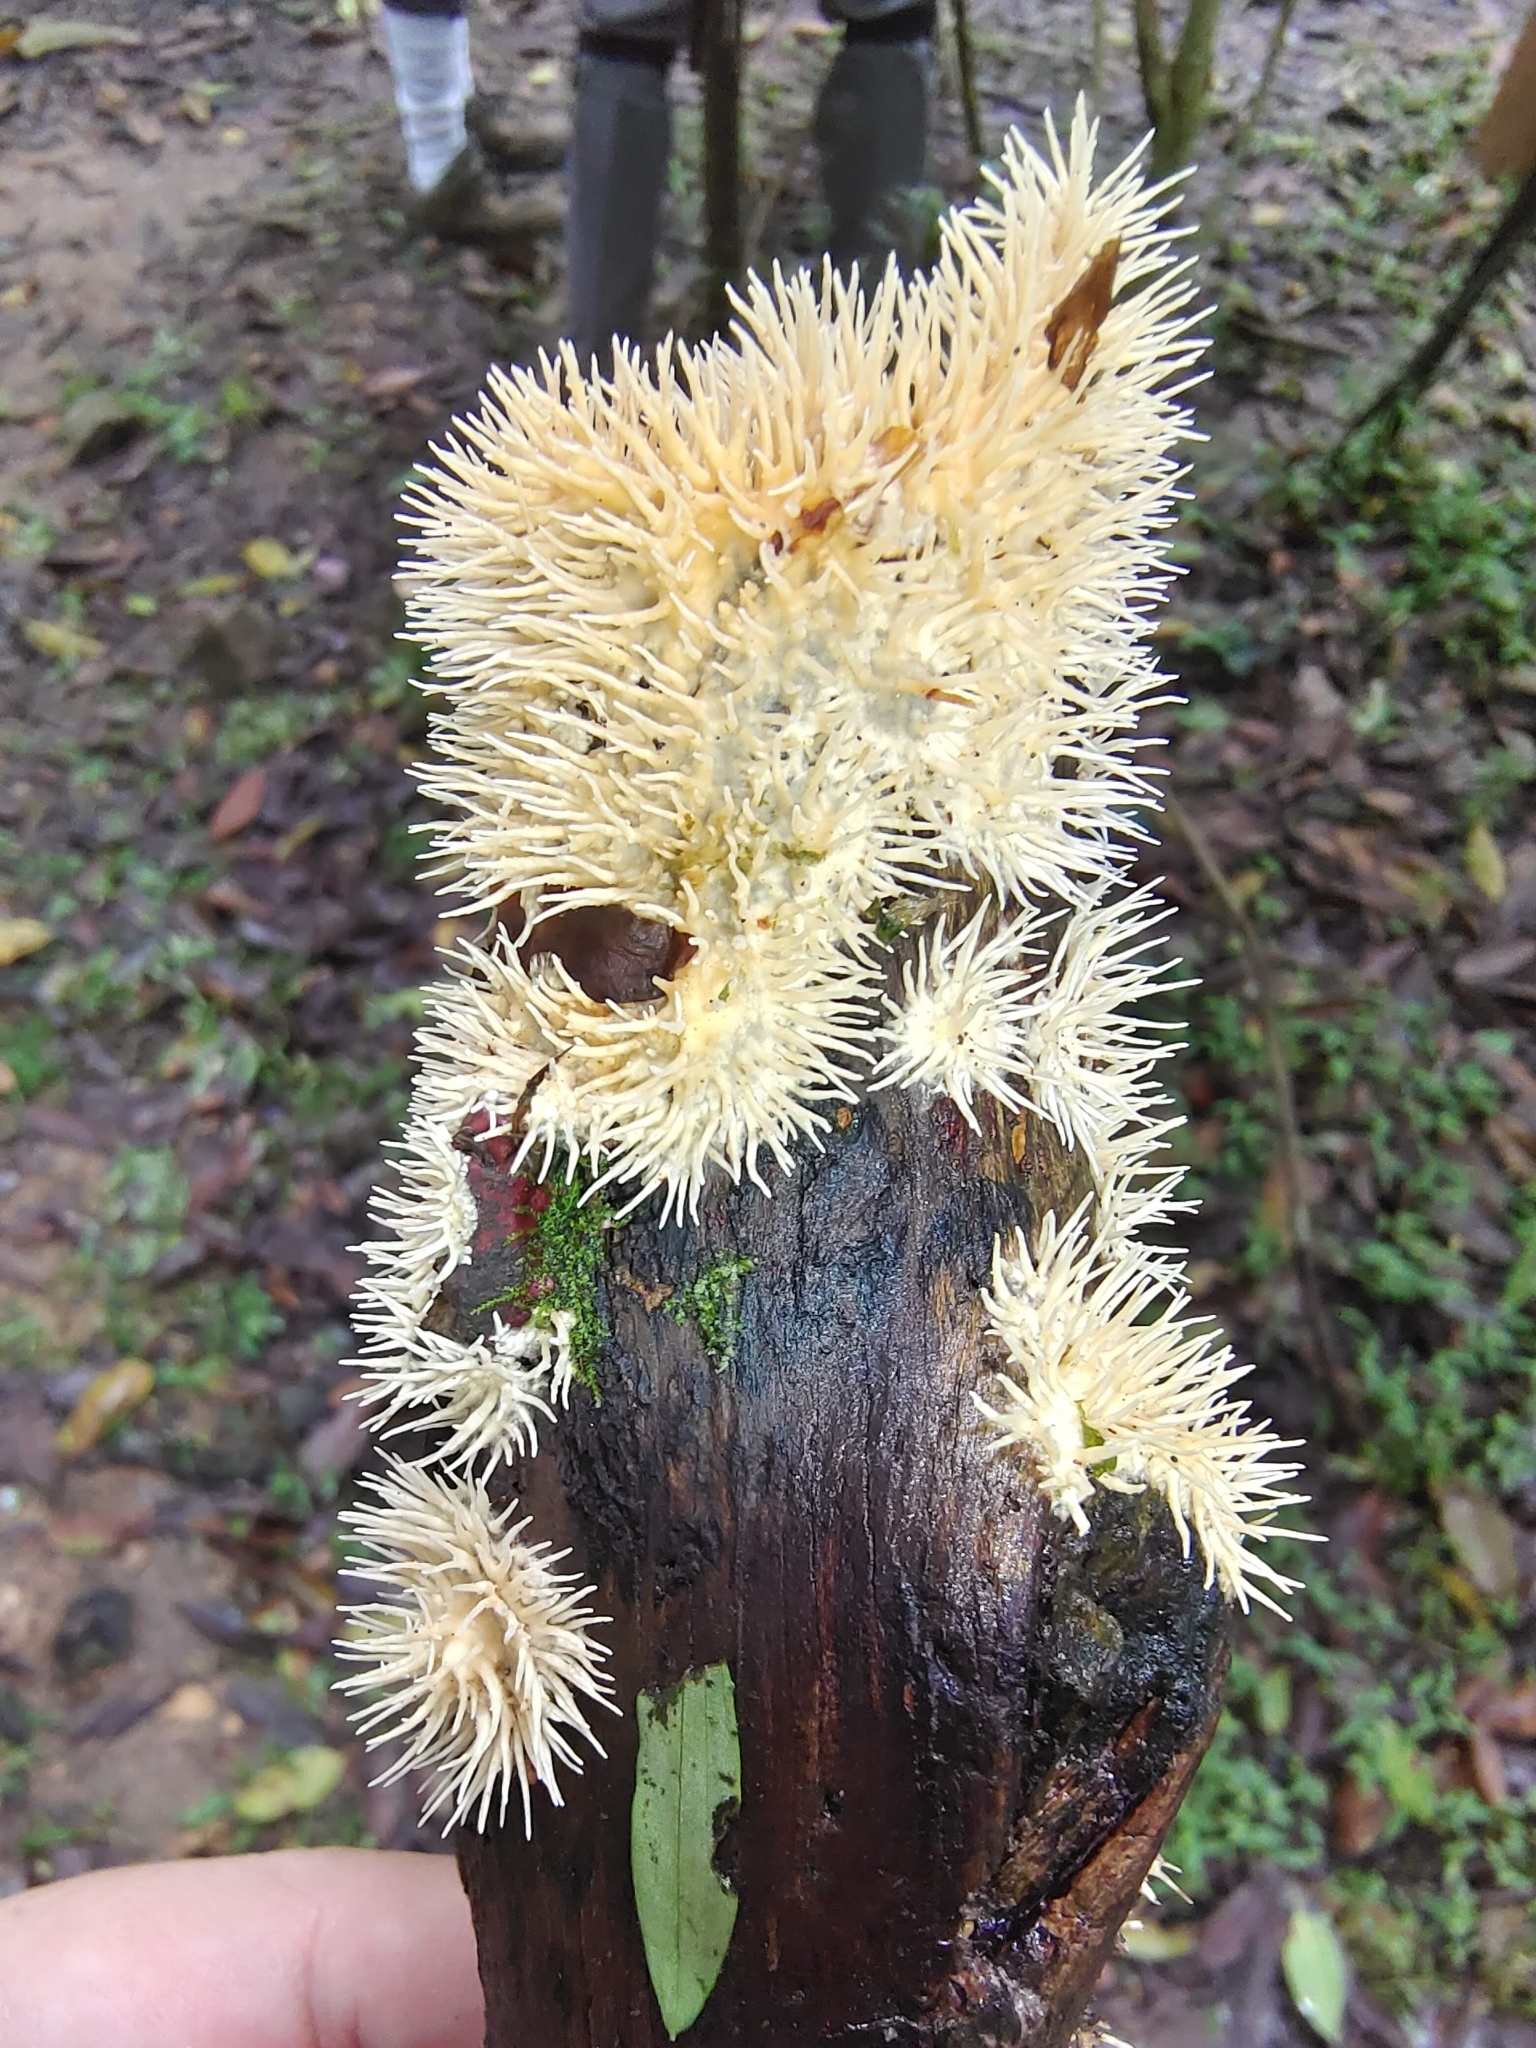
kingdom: Fungi
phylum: Basidiomycota
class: Agaricomycetes
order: Auriculariales
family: Auriculariaceae
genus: Elmerina
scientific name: Elmerina sclerodontia
